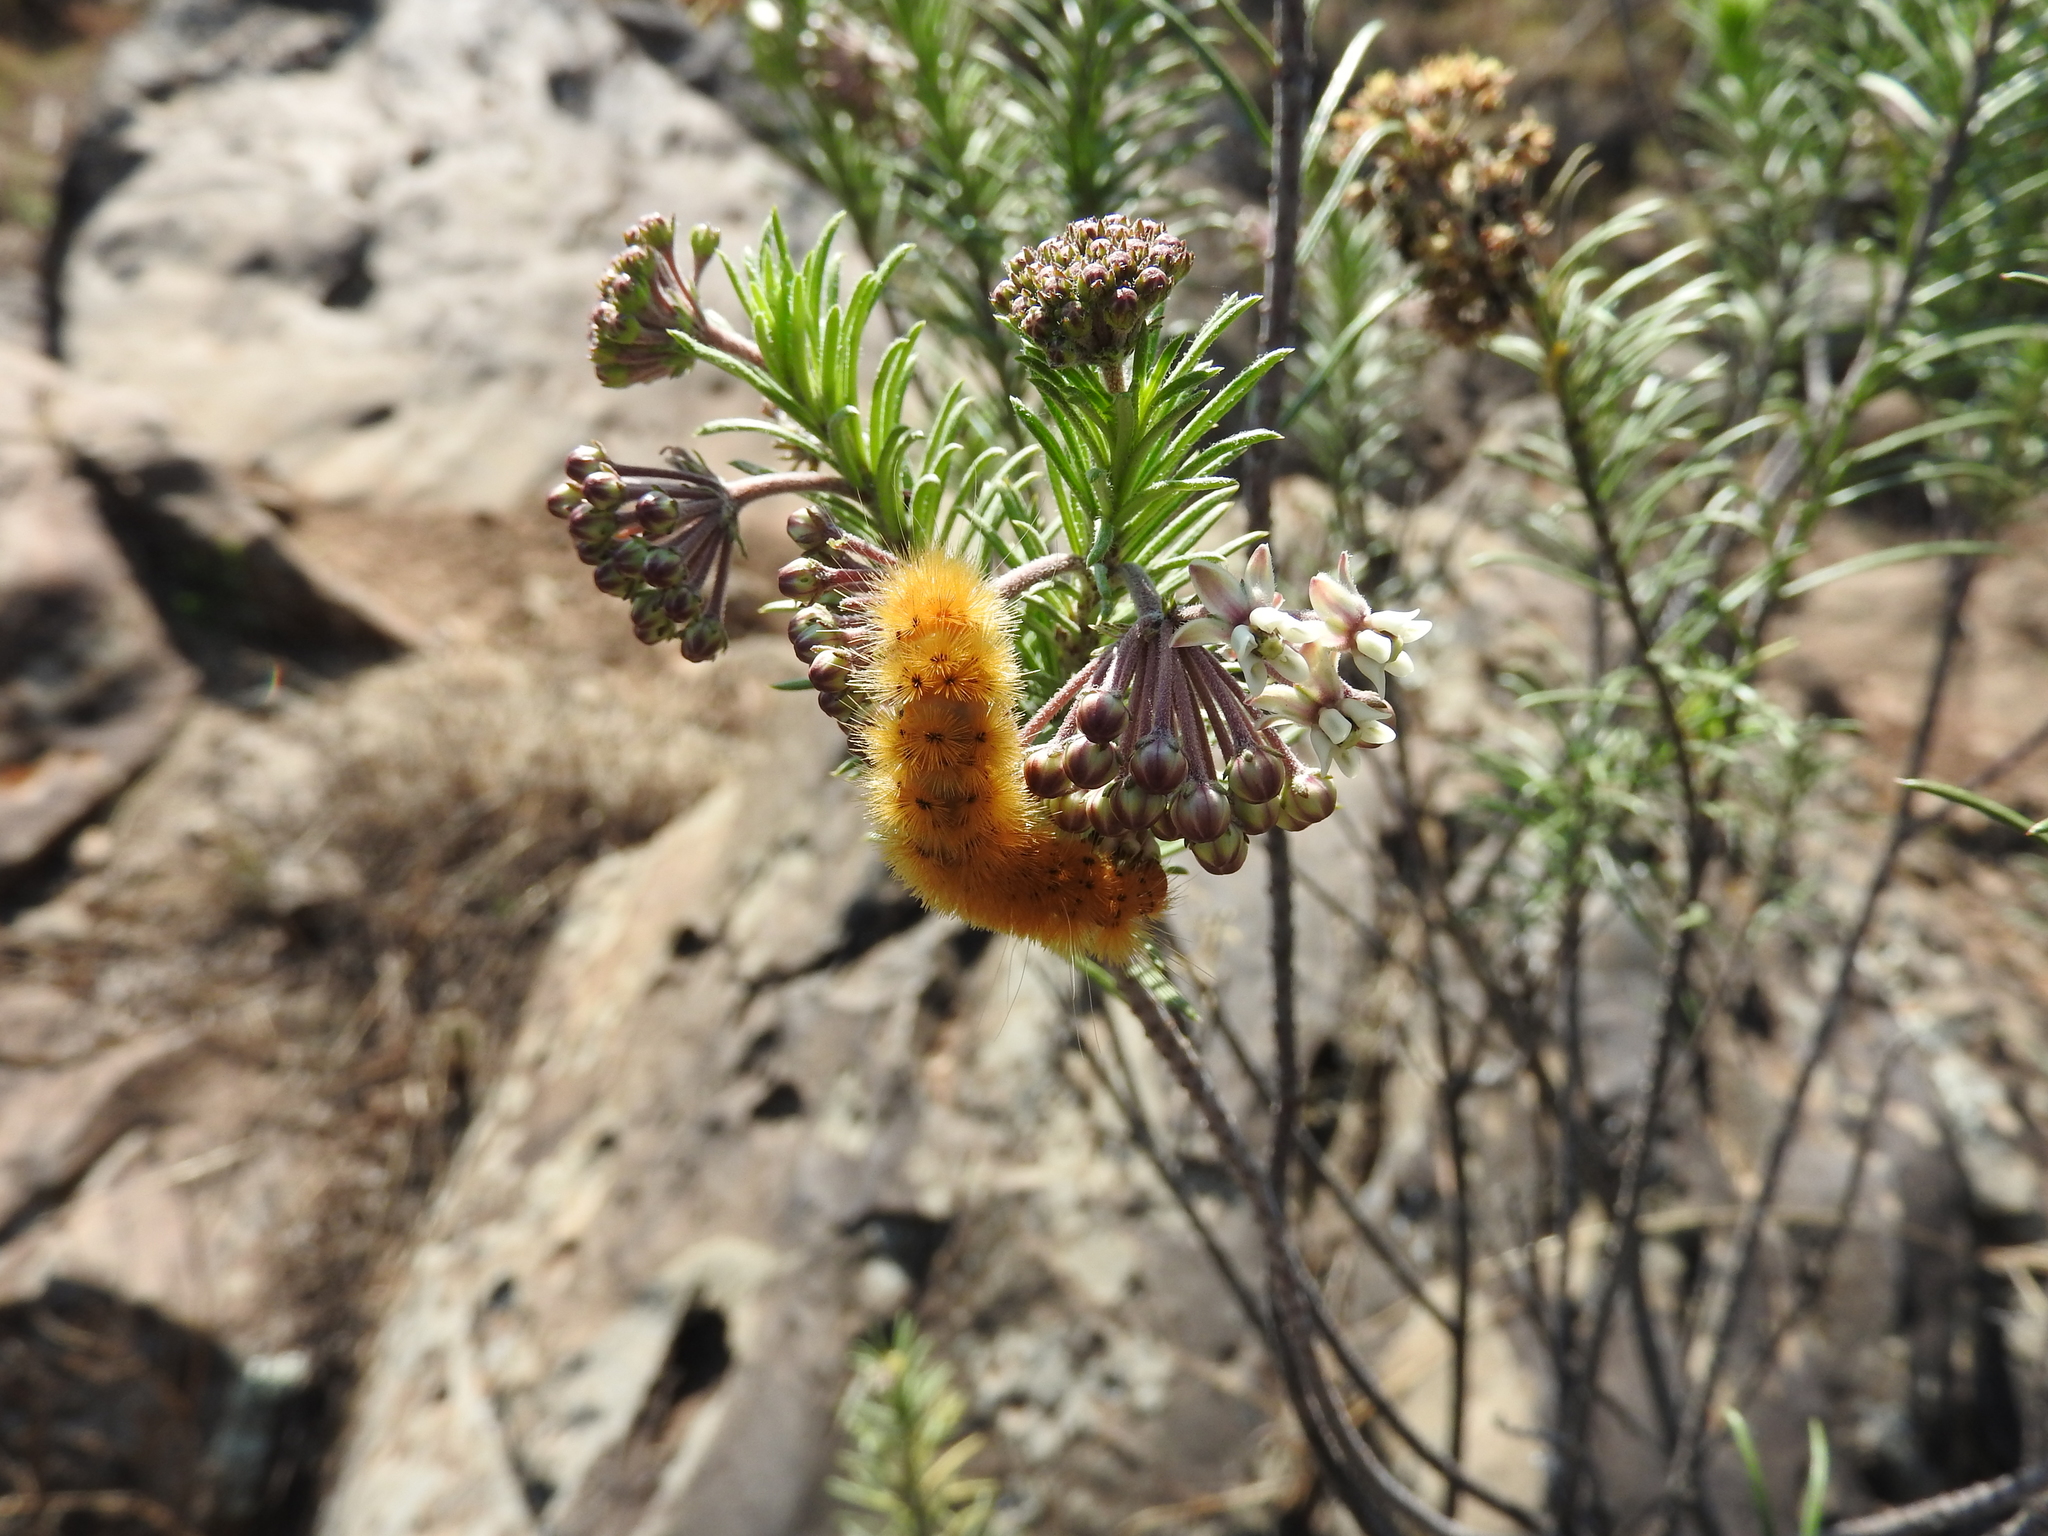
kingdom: Animalia
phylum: Arthropoda
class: Insecta
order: Lepidoptera
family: Erebidae
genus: Lerina
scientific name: Lerina incarnata
